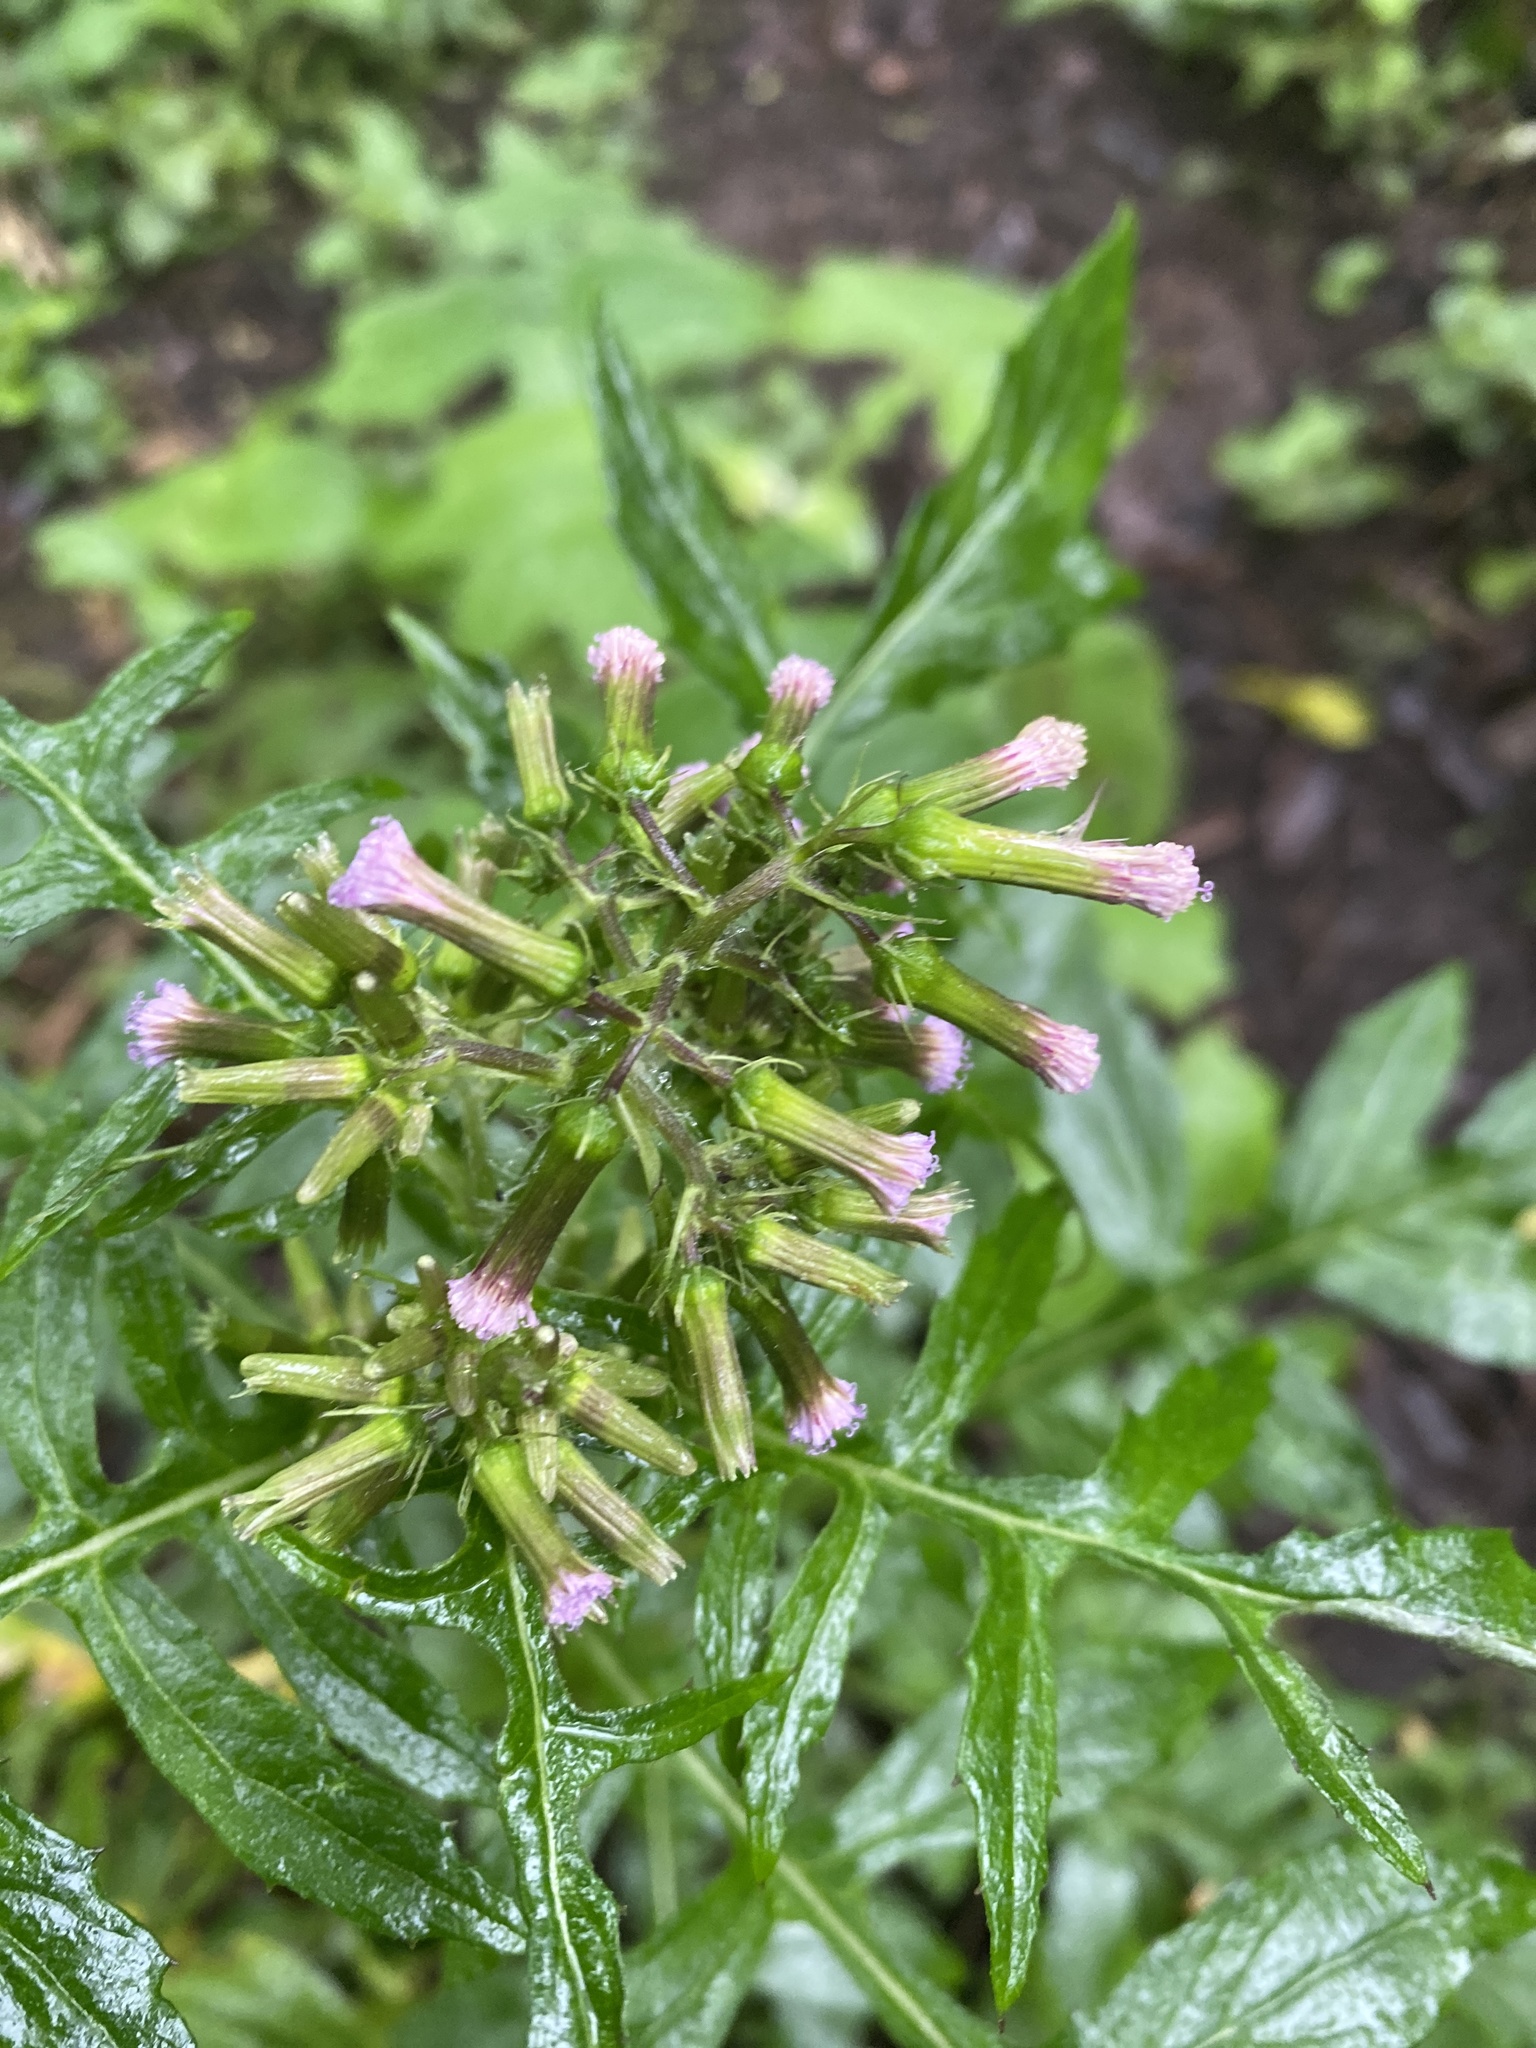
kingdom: Plantae
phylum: Tracheophyta
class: Magnoliopsida
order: Asterales
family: Asteraceae
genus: Erechtites
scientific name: Erechtites valerianifolius
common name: Tropical burnweed
